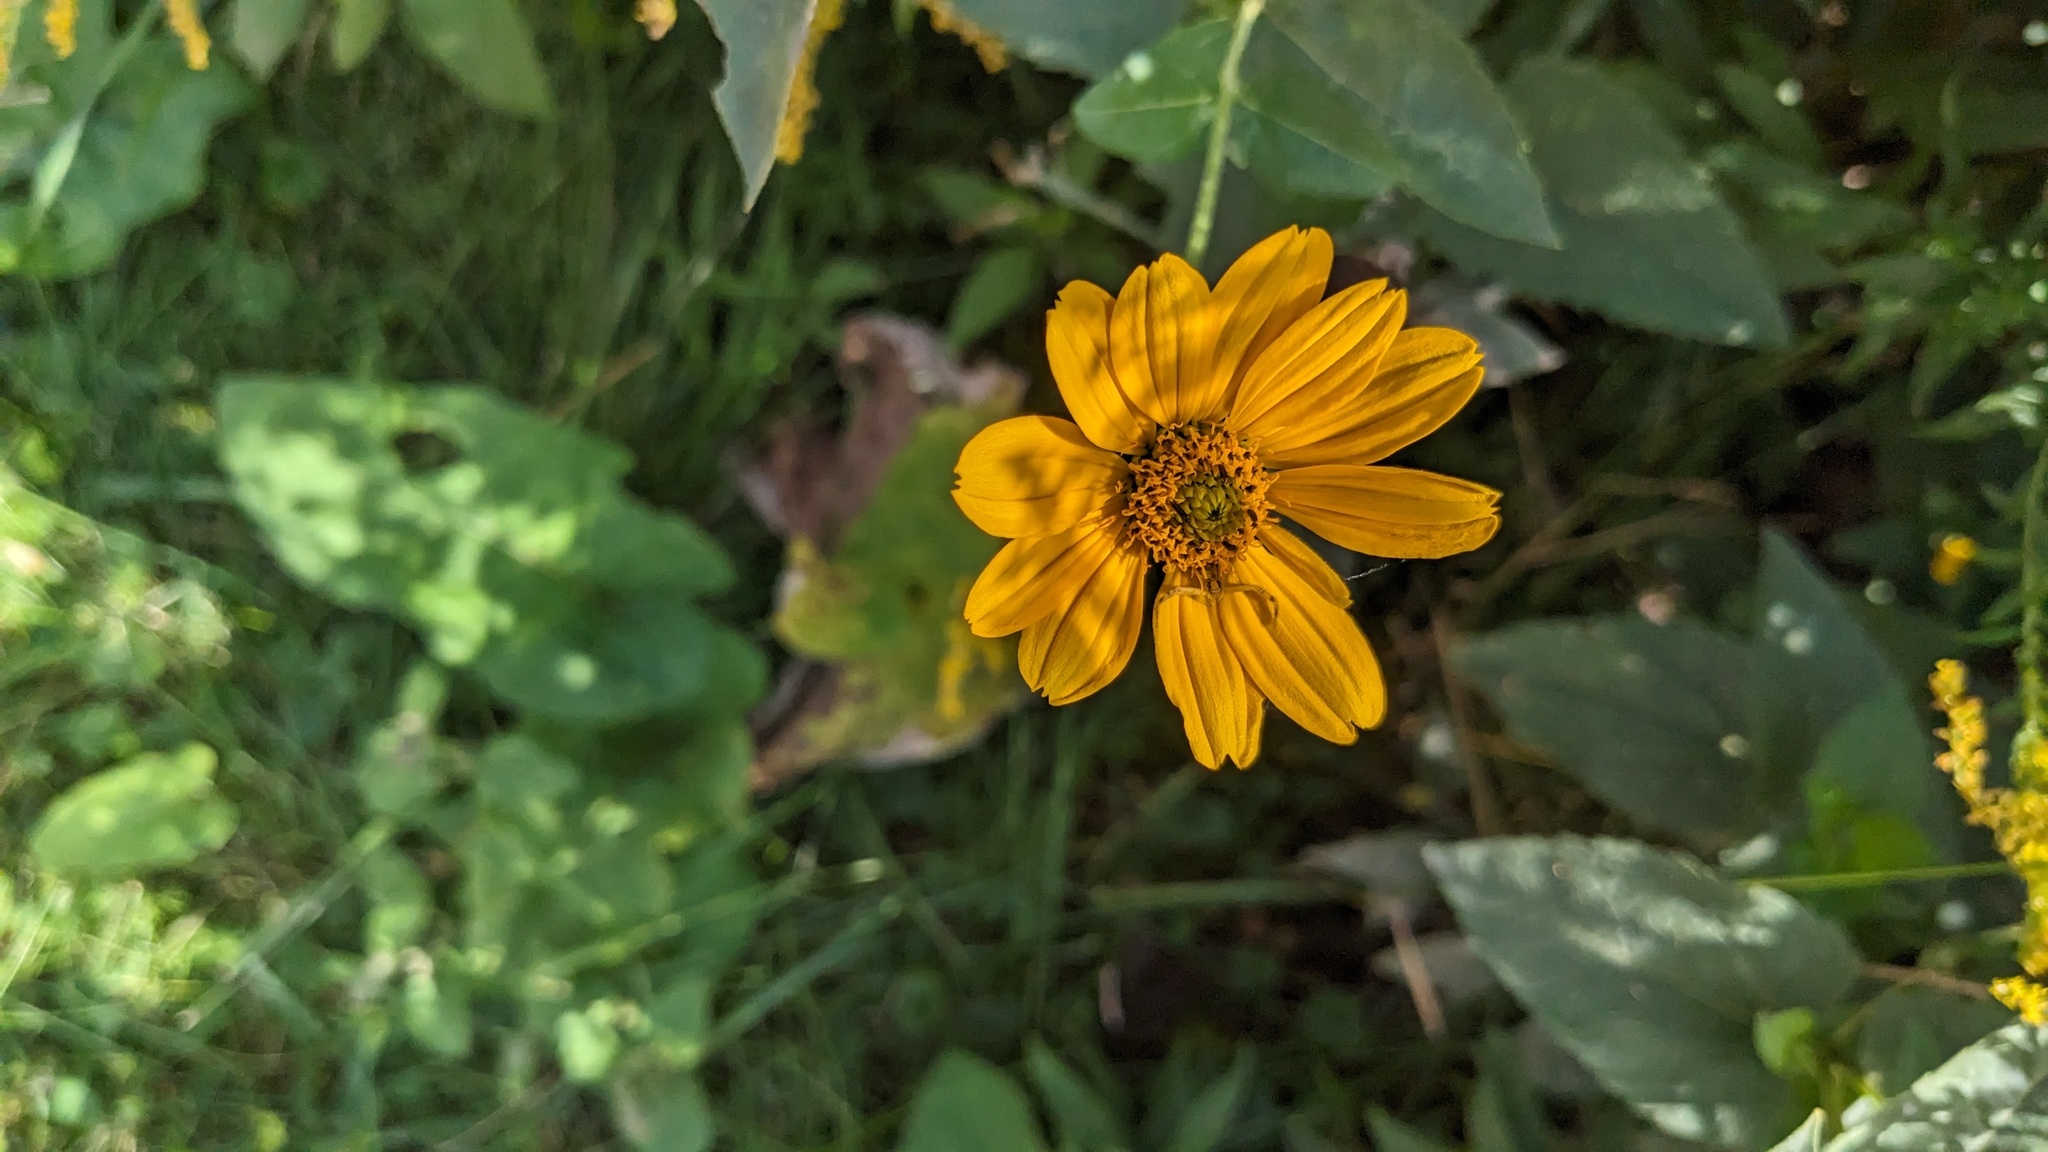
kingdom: Plantae
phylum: Tracheophyta
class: Magnoliopsida
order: Asterales
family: Asteraceae
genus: Heliopsis
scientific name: Heliopsis helianthoides
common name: False sunflower
